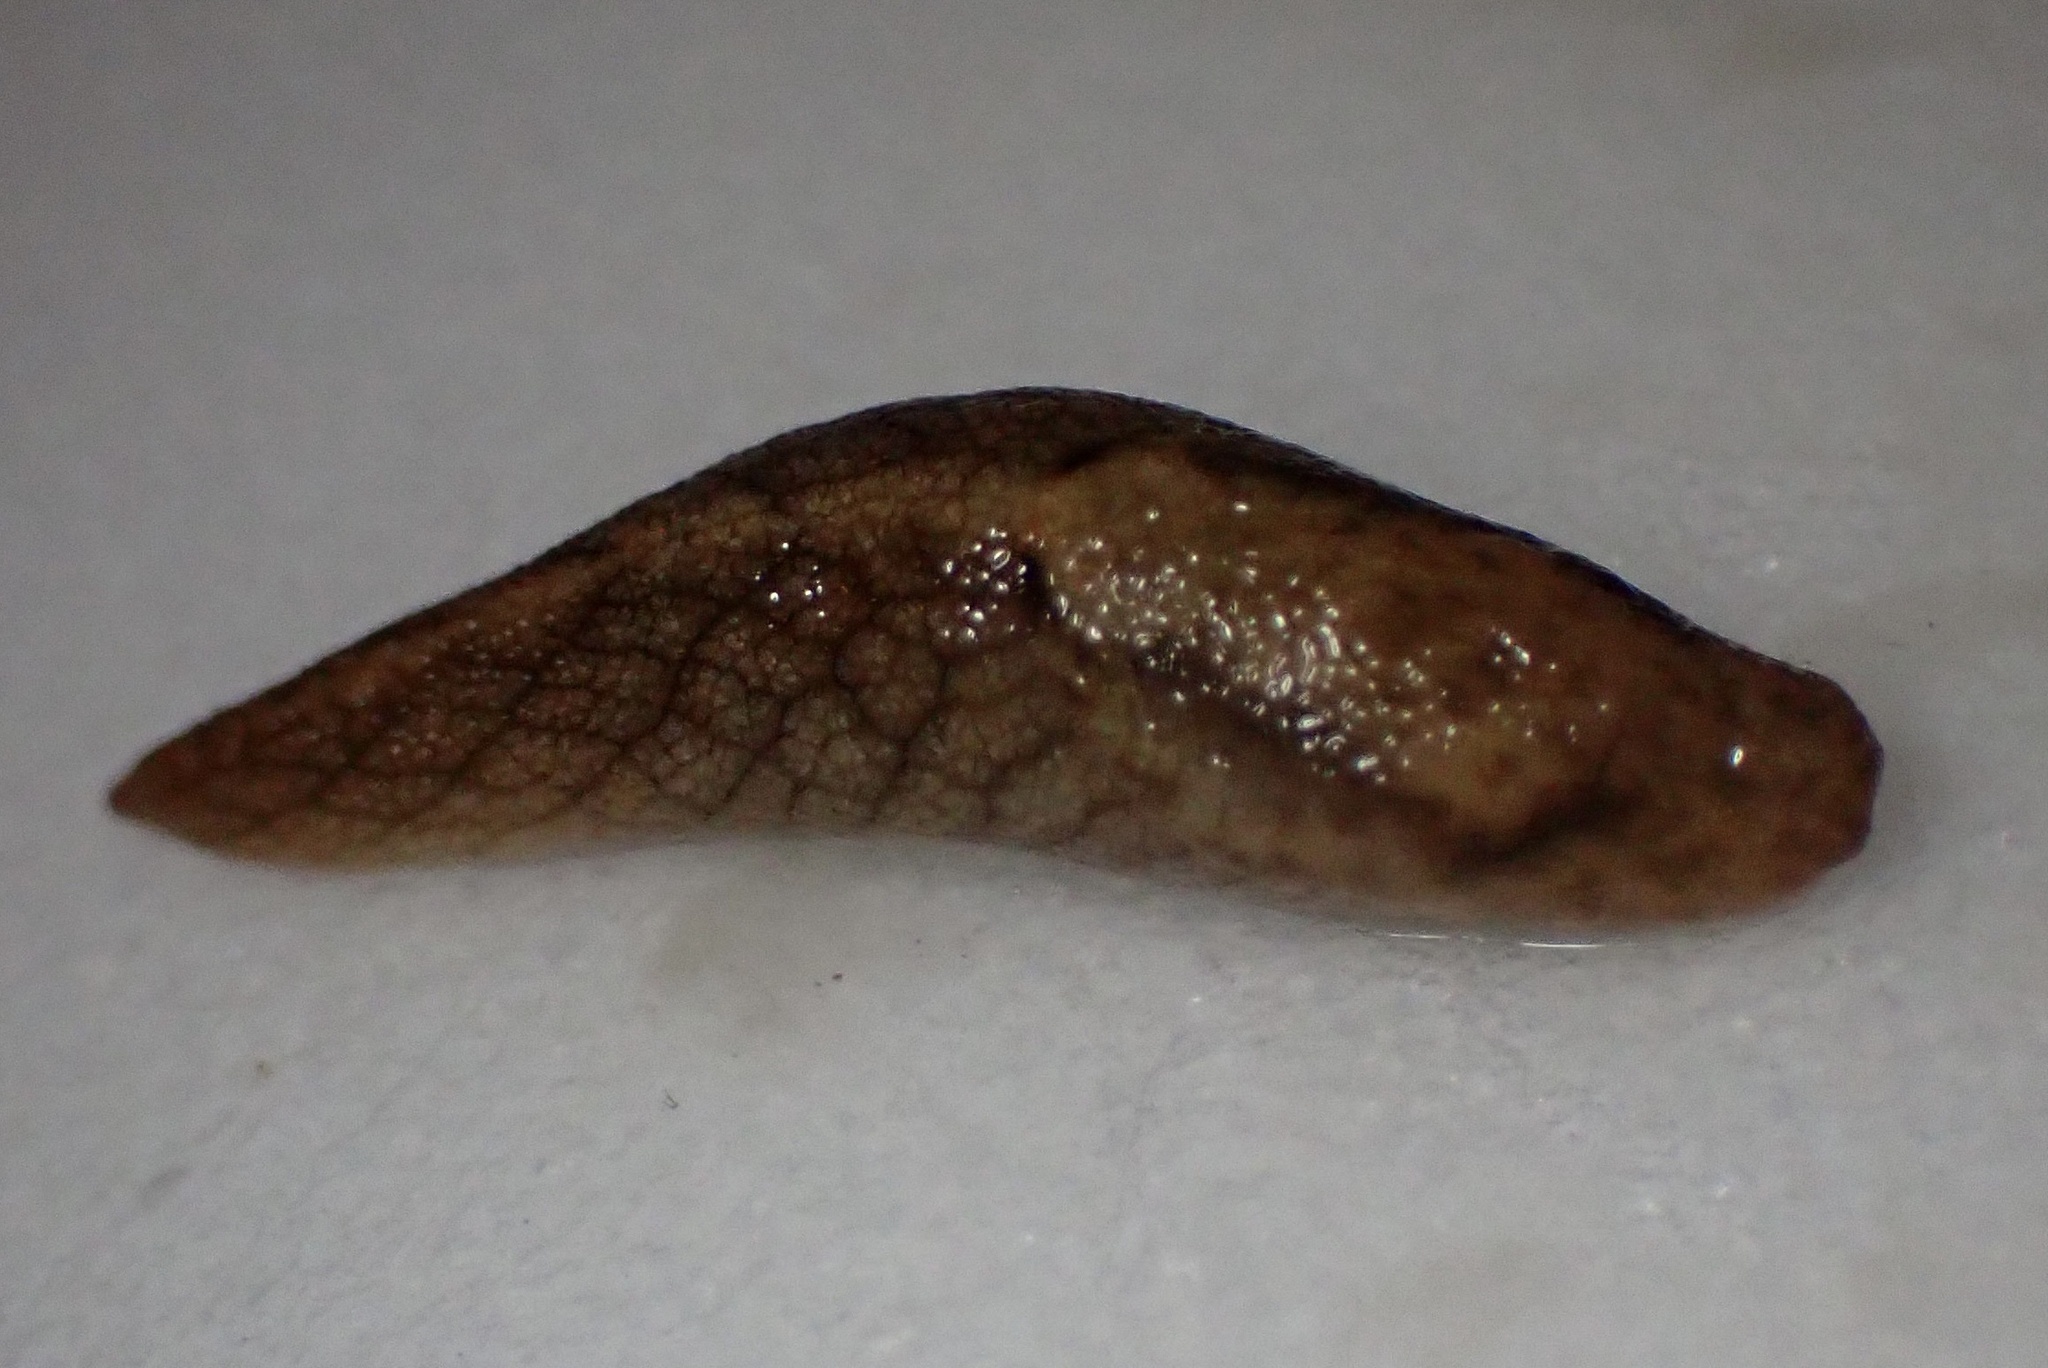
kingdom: Animalia
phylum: Mollusca
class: Gastropoda
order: Stylommatophora
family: Ariolimacidae
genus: Prophysaon
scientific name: Prophysaon andersonii
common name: Reticulate taildropper
